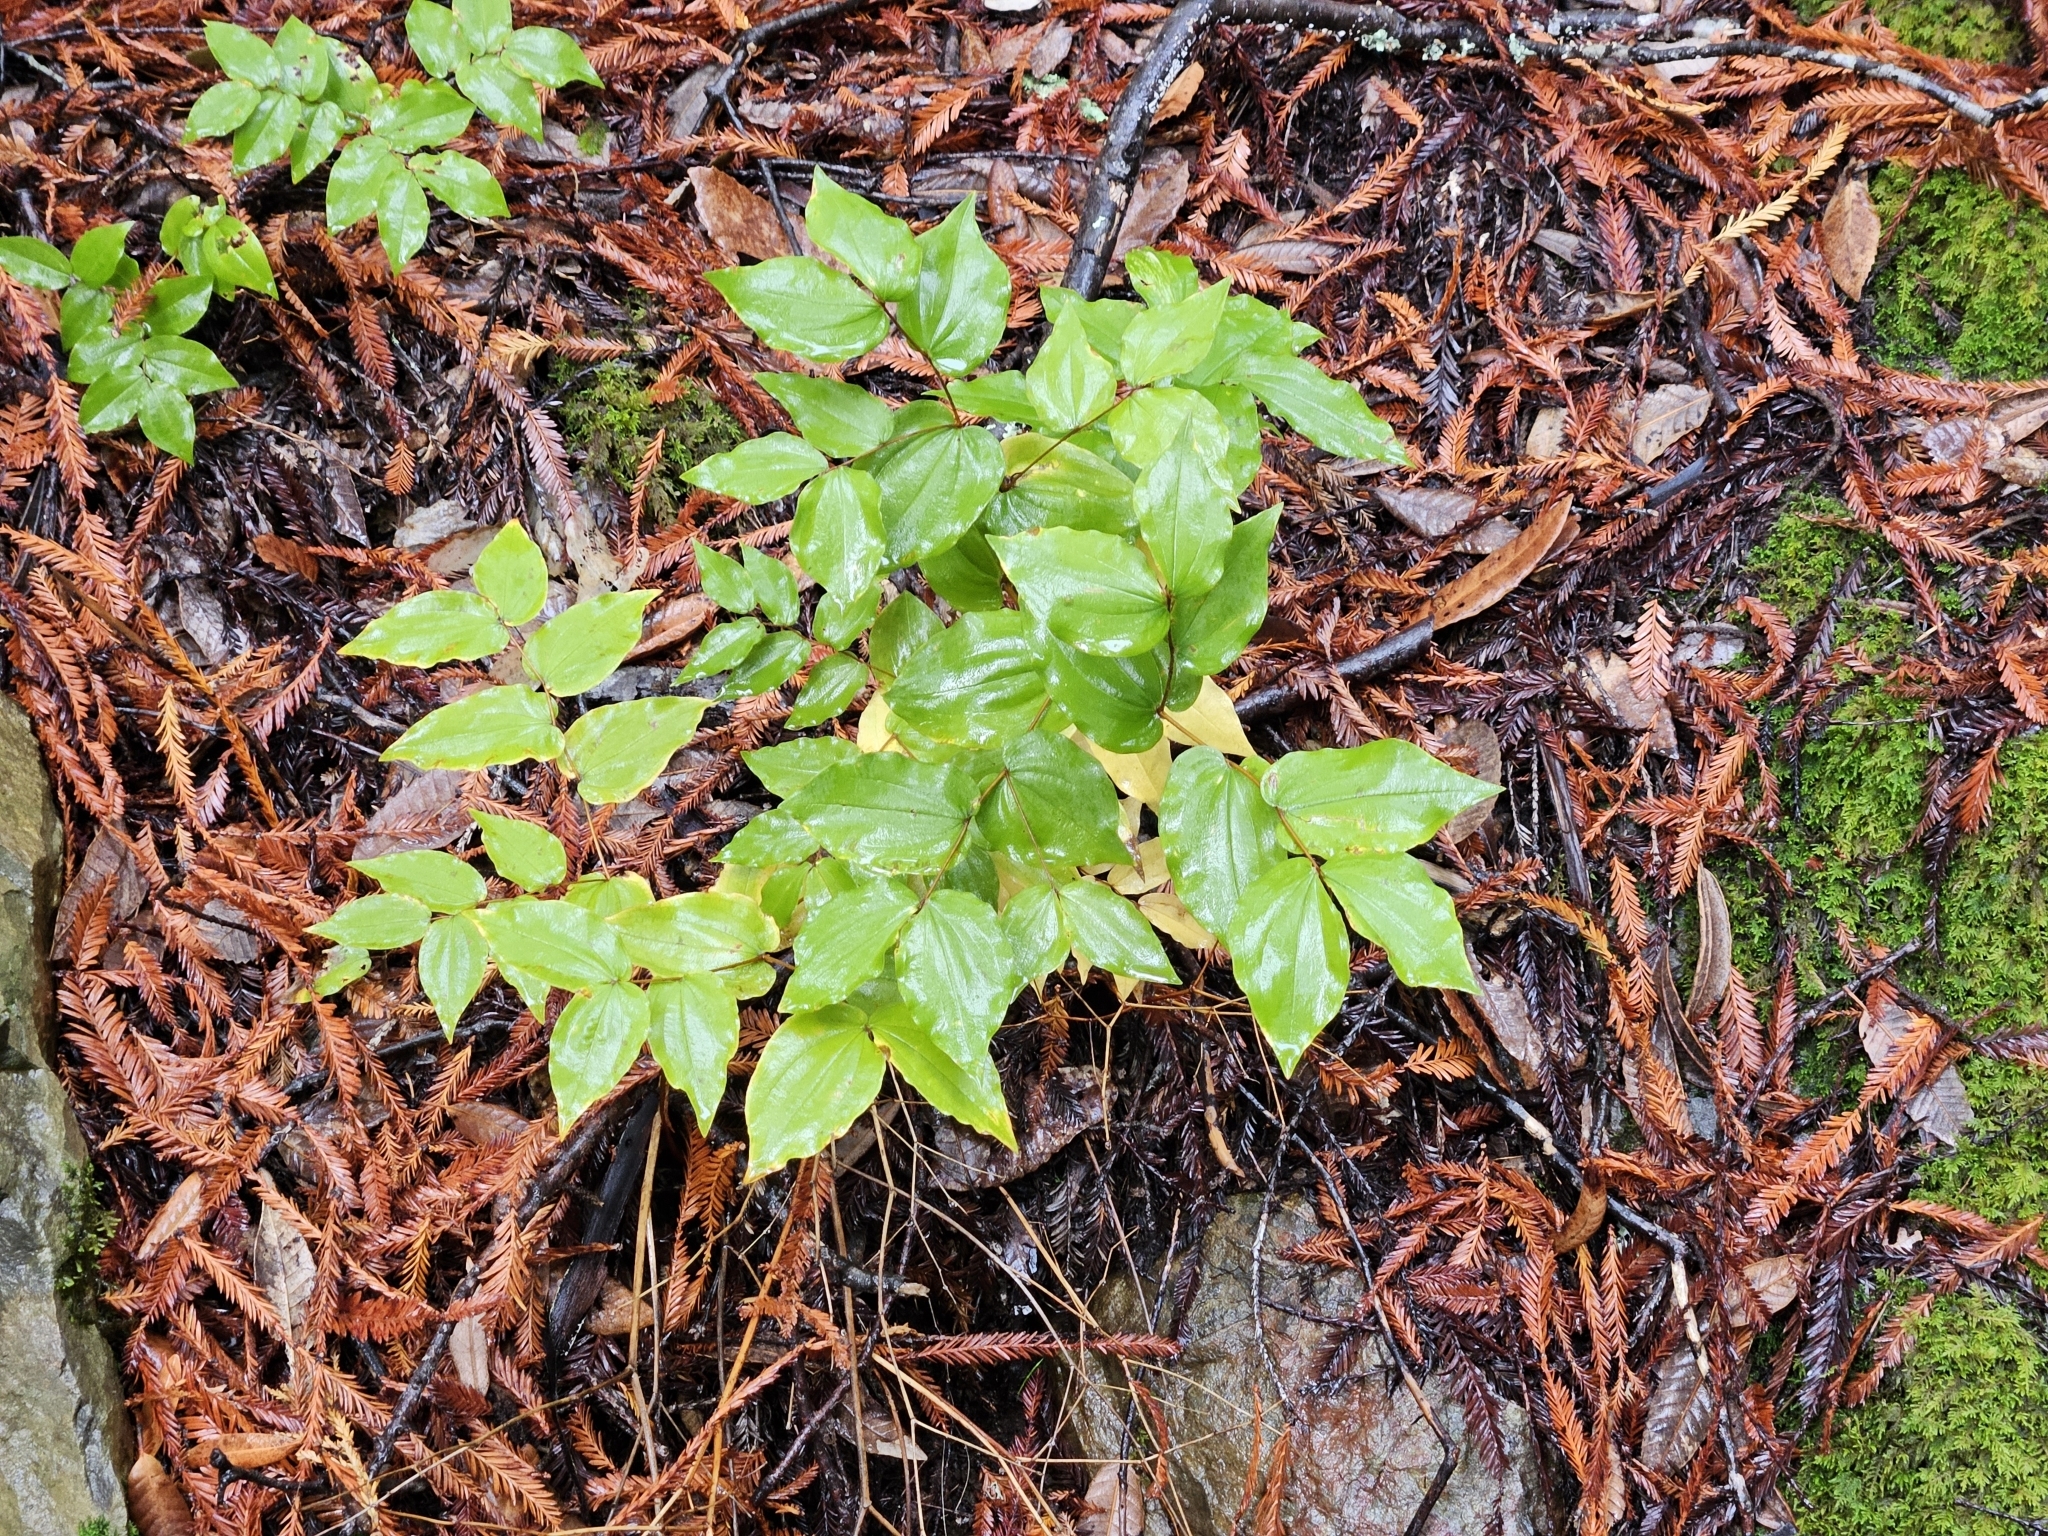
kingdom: Plantae
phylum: Tracheophyta
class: Liliopsida
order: Liliales
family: Liliaceae
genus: Prosartes
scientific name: Prosartes hookeri
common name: Fairy-bells
